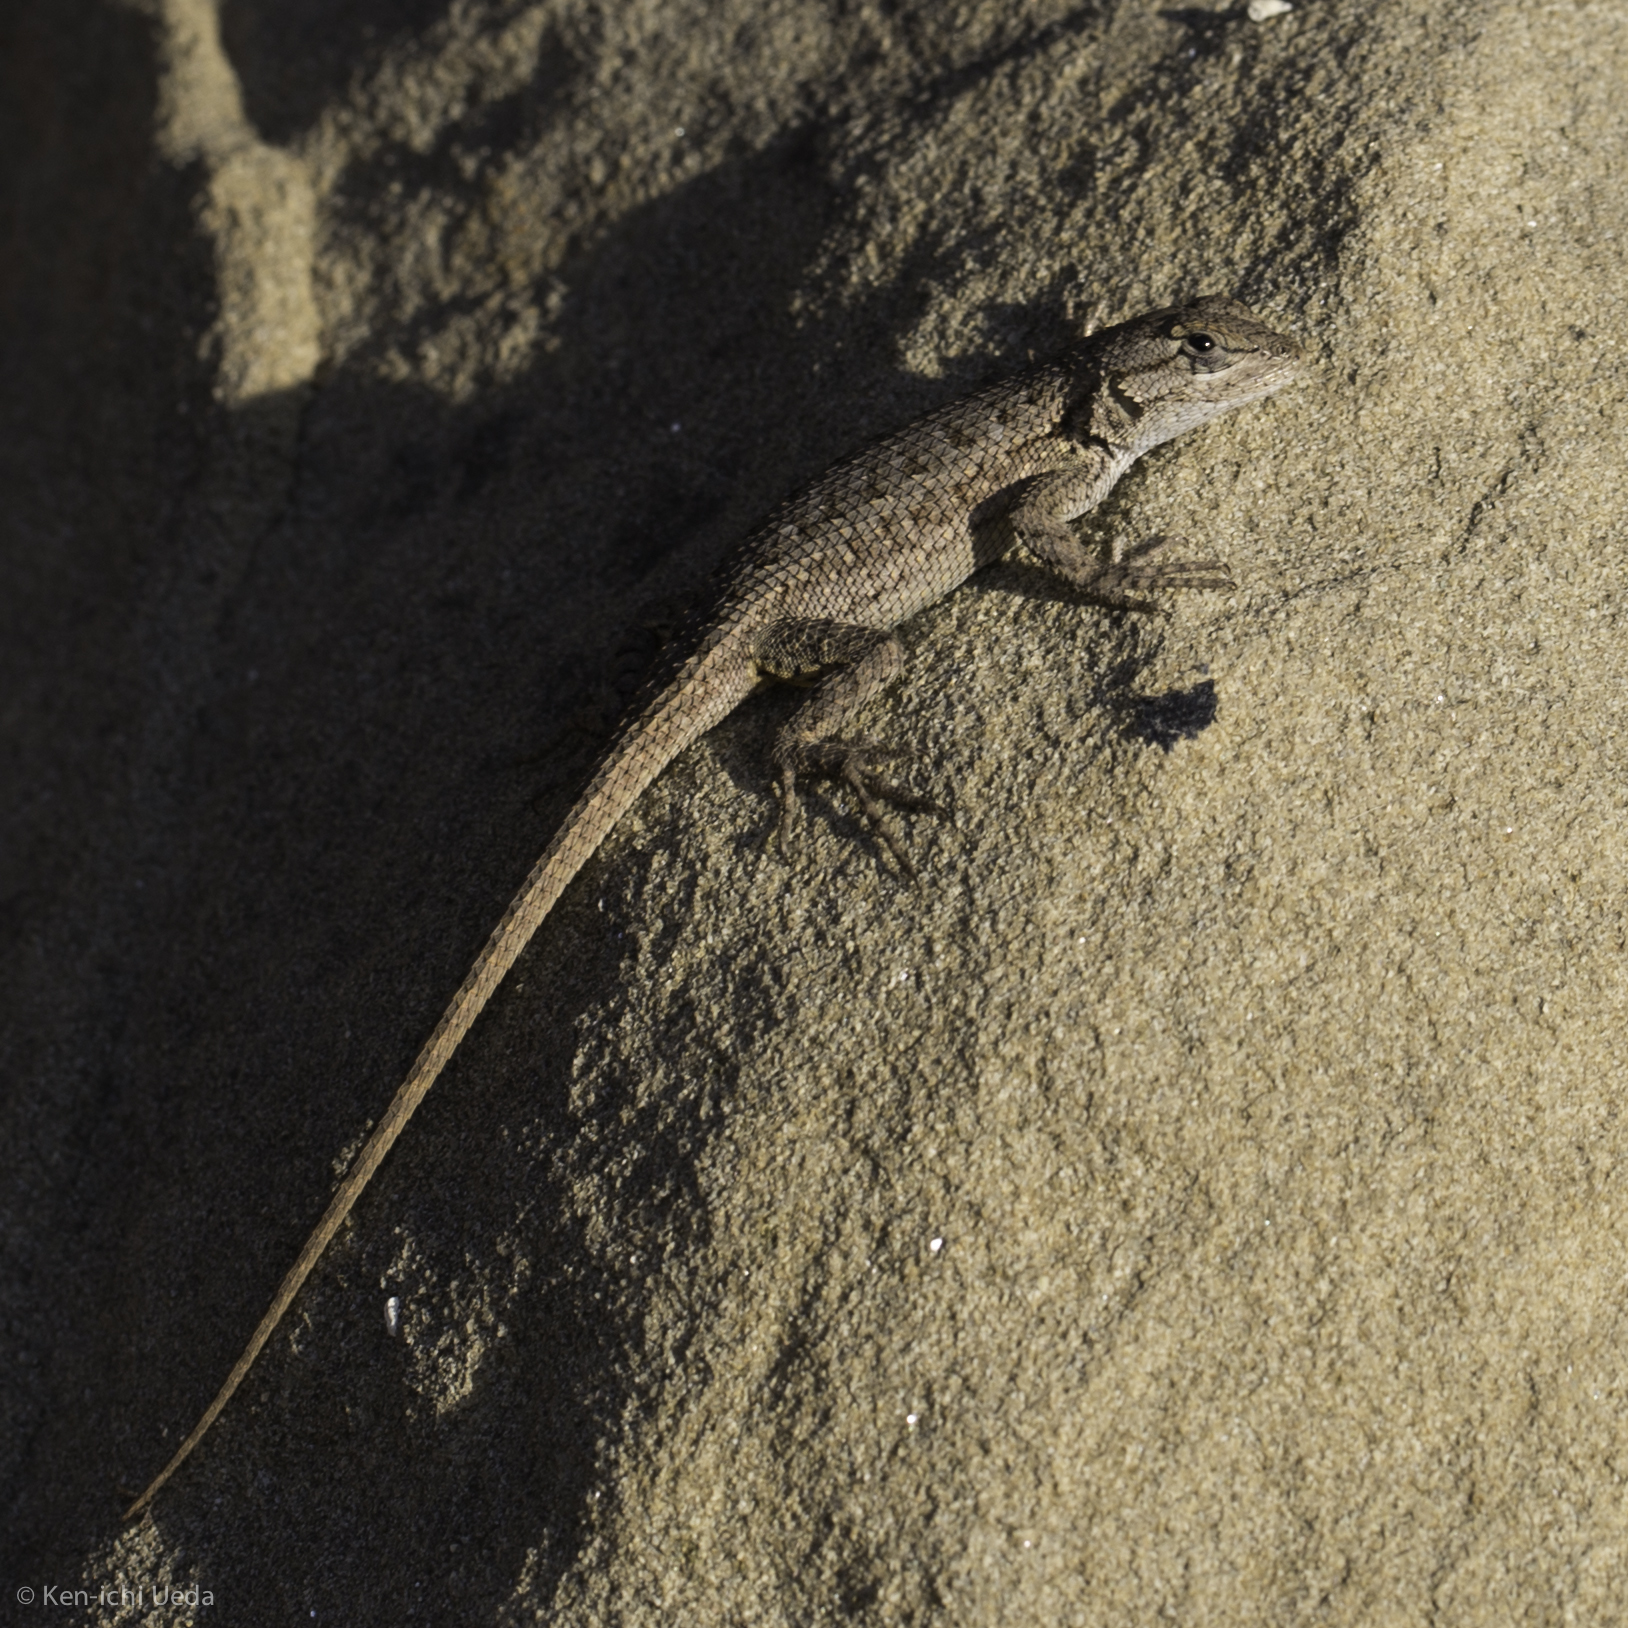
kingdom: Animalia
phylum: Chordata
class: Squamata
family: Phrynosomatidae
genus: Sceloporus
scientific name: Sceloporus occidentalis
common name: Western fence lizard
